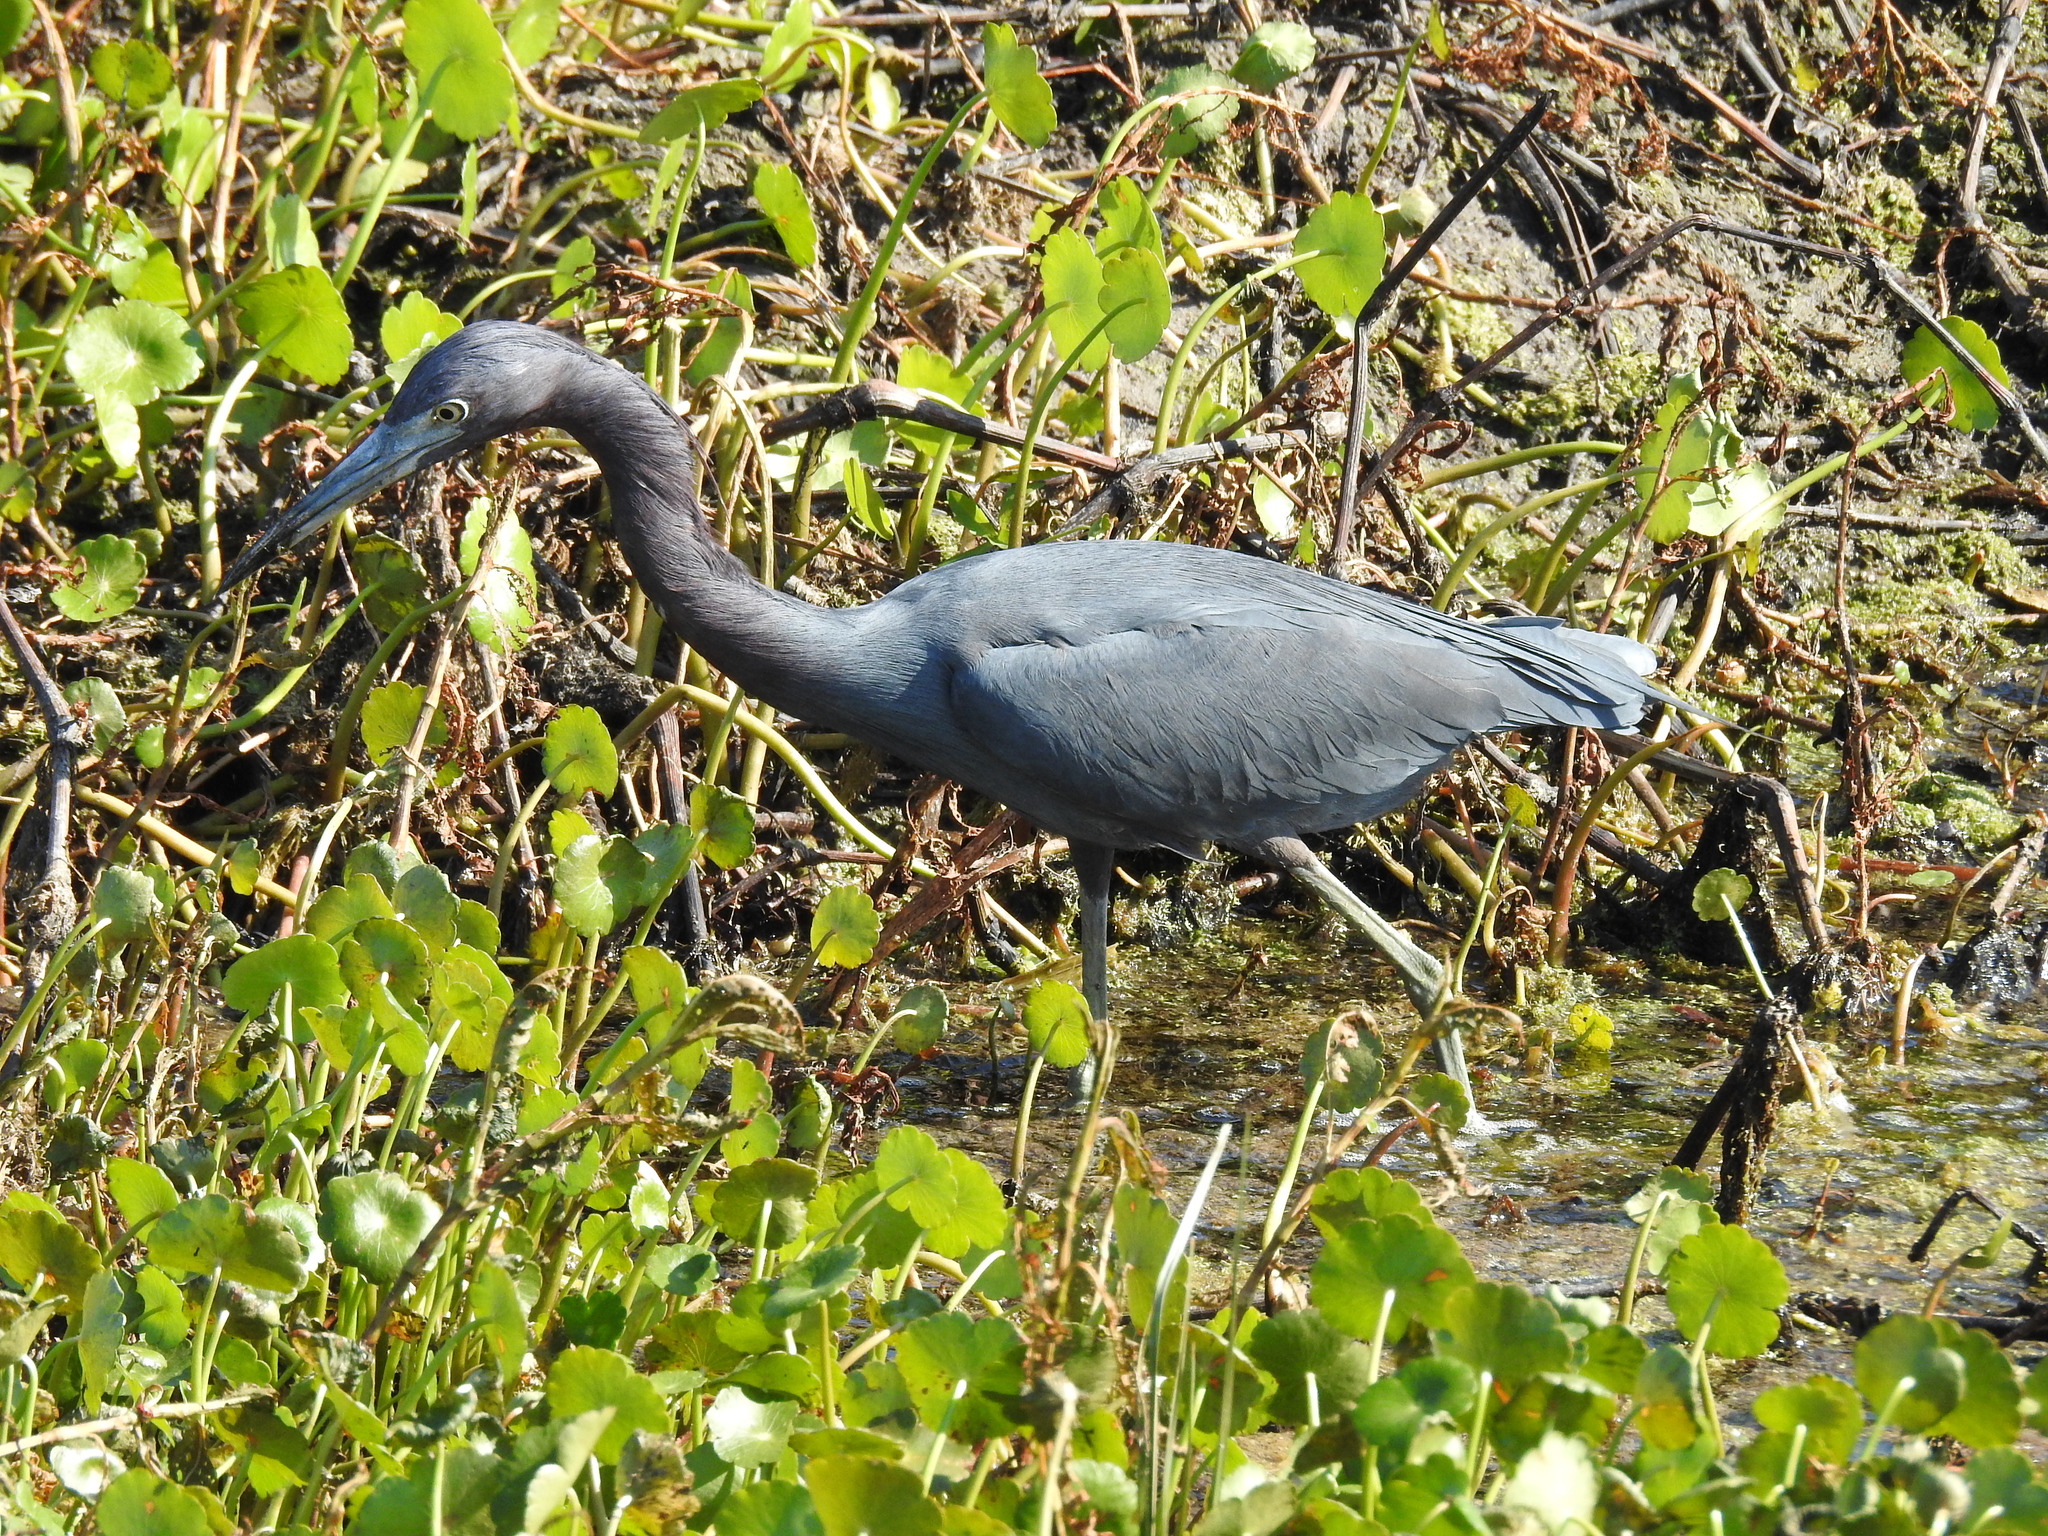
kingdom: Animalia
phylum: Chordata
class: Aves
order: Pelecaniformes
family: Ardeidae
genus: Egretta
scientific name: Egretta caerulea
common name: Little blue heron
